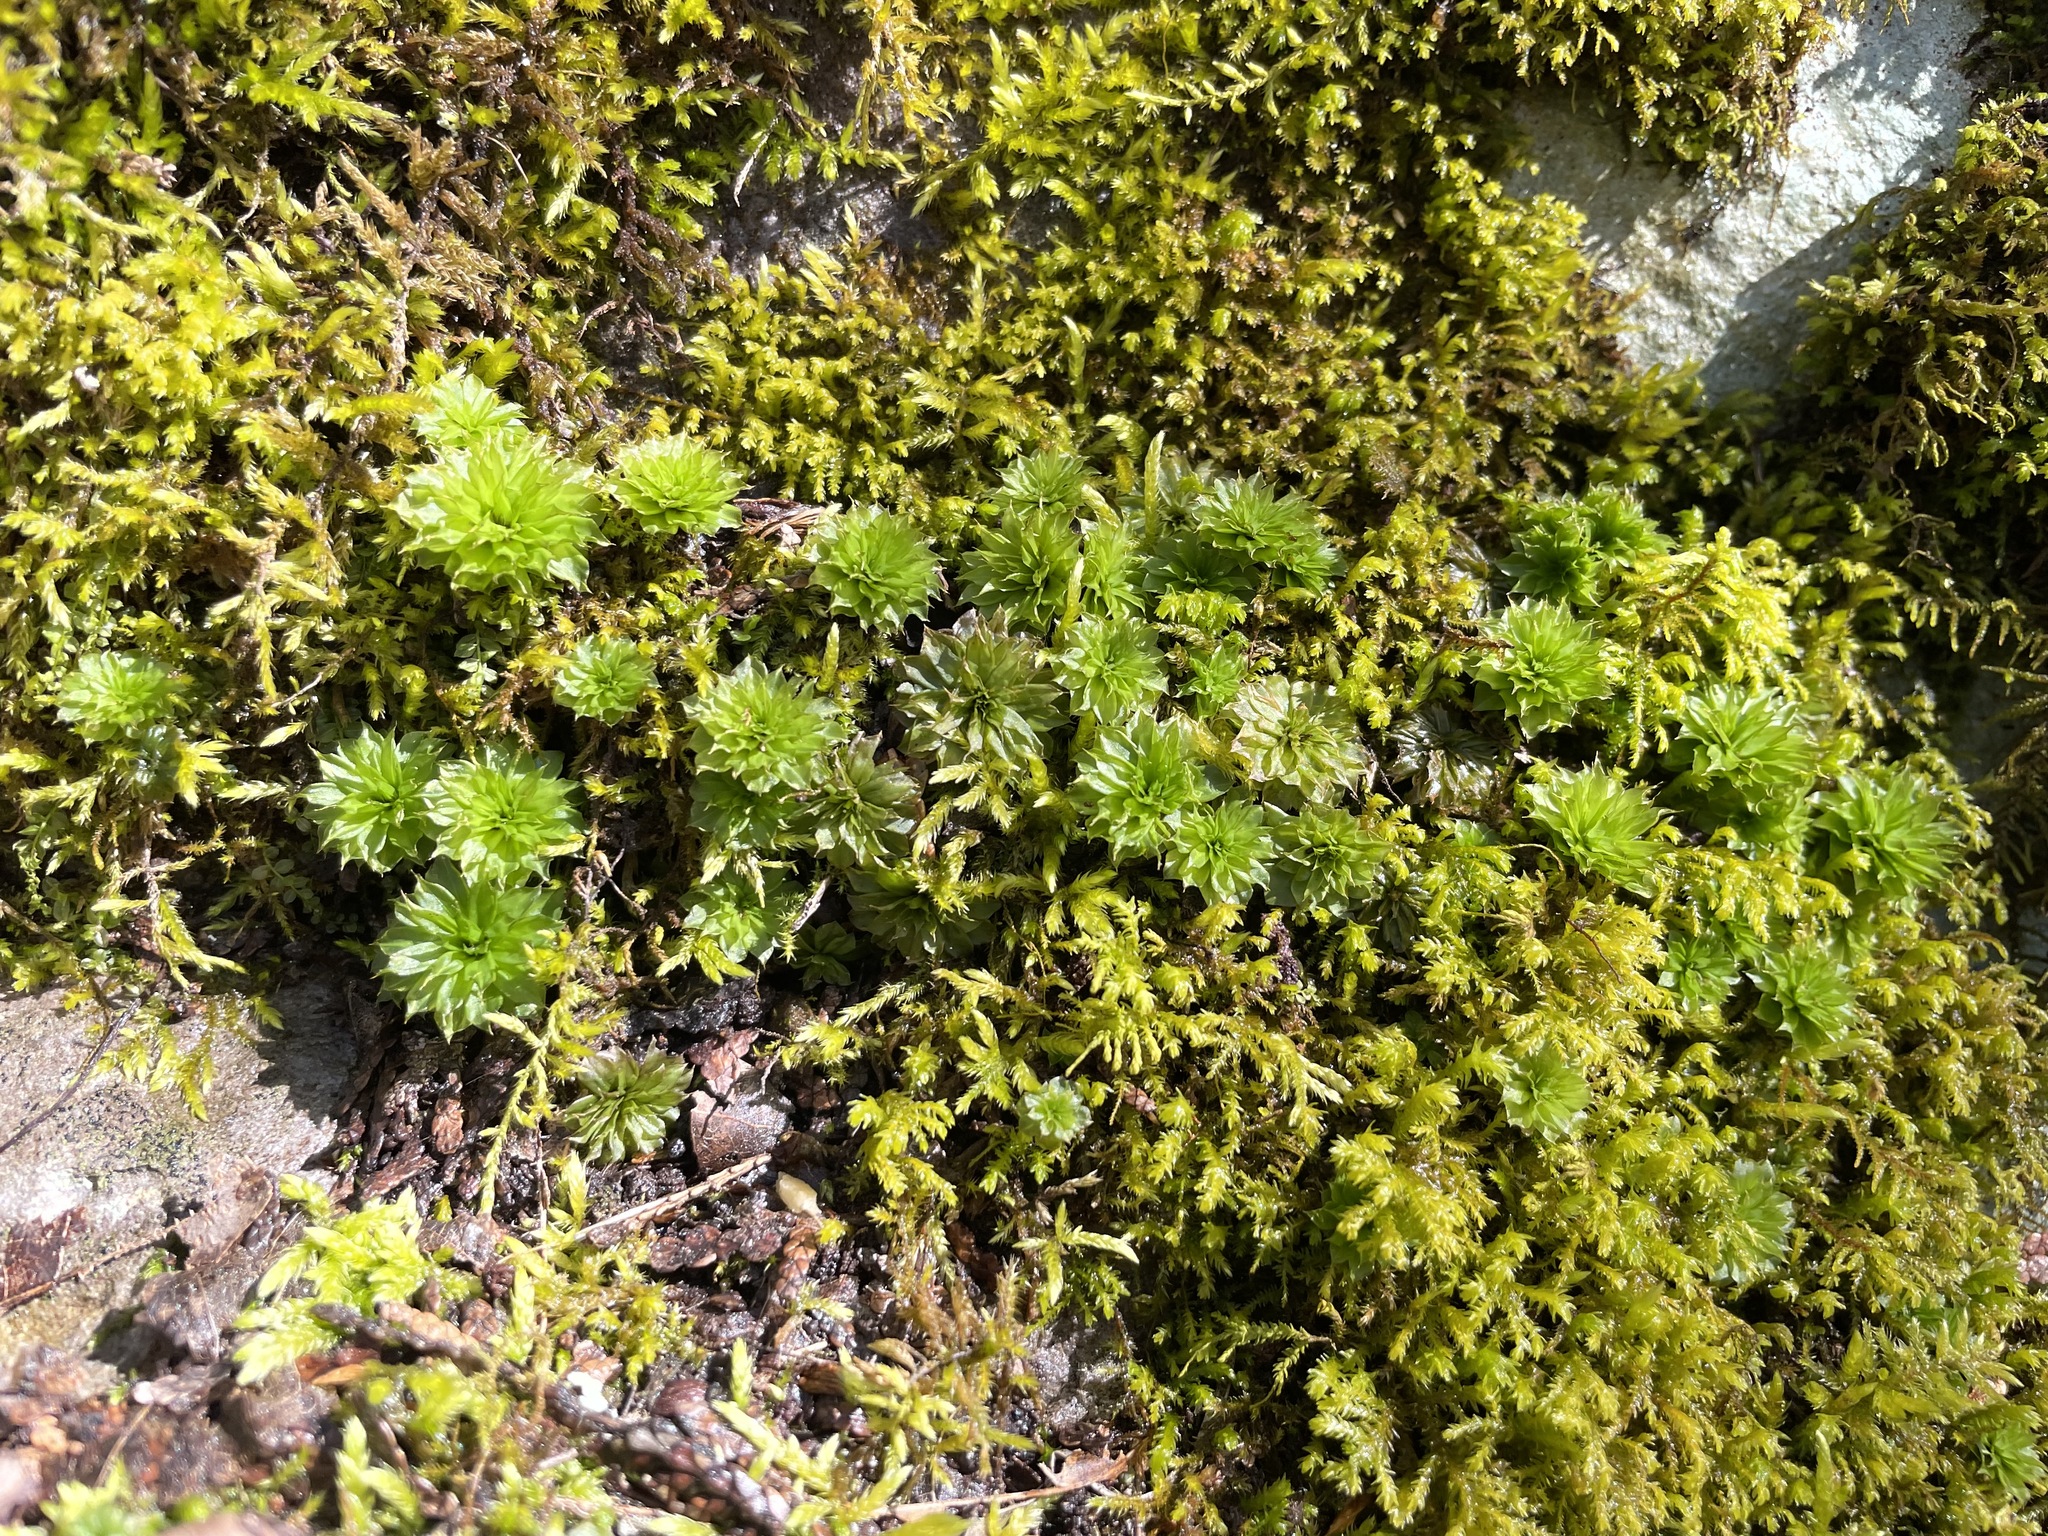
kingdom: Plantae
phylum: Bryophyta
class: Bryopsida
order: Bryales
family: Bryaceae
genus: Rhodobryum
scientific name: Rhodobryum ontariense
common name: Ontario rhodobryum moss
